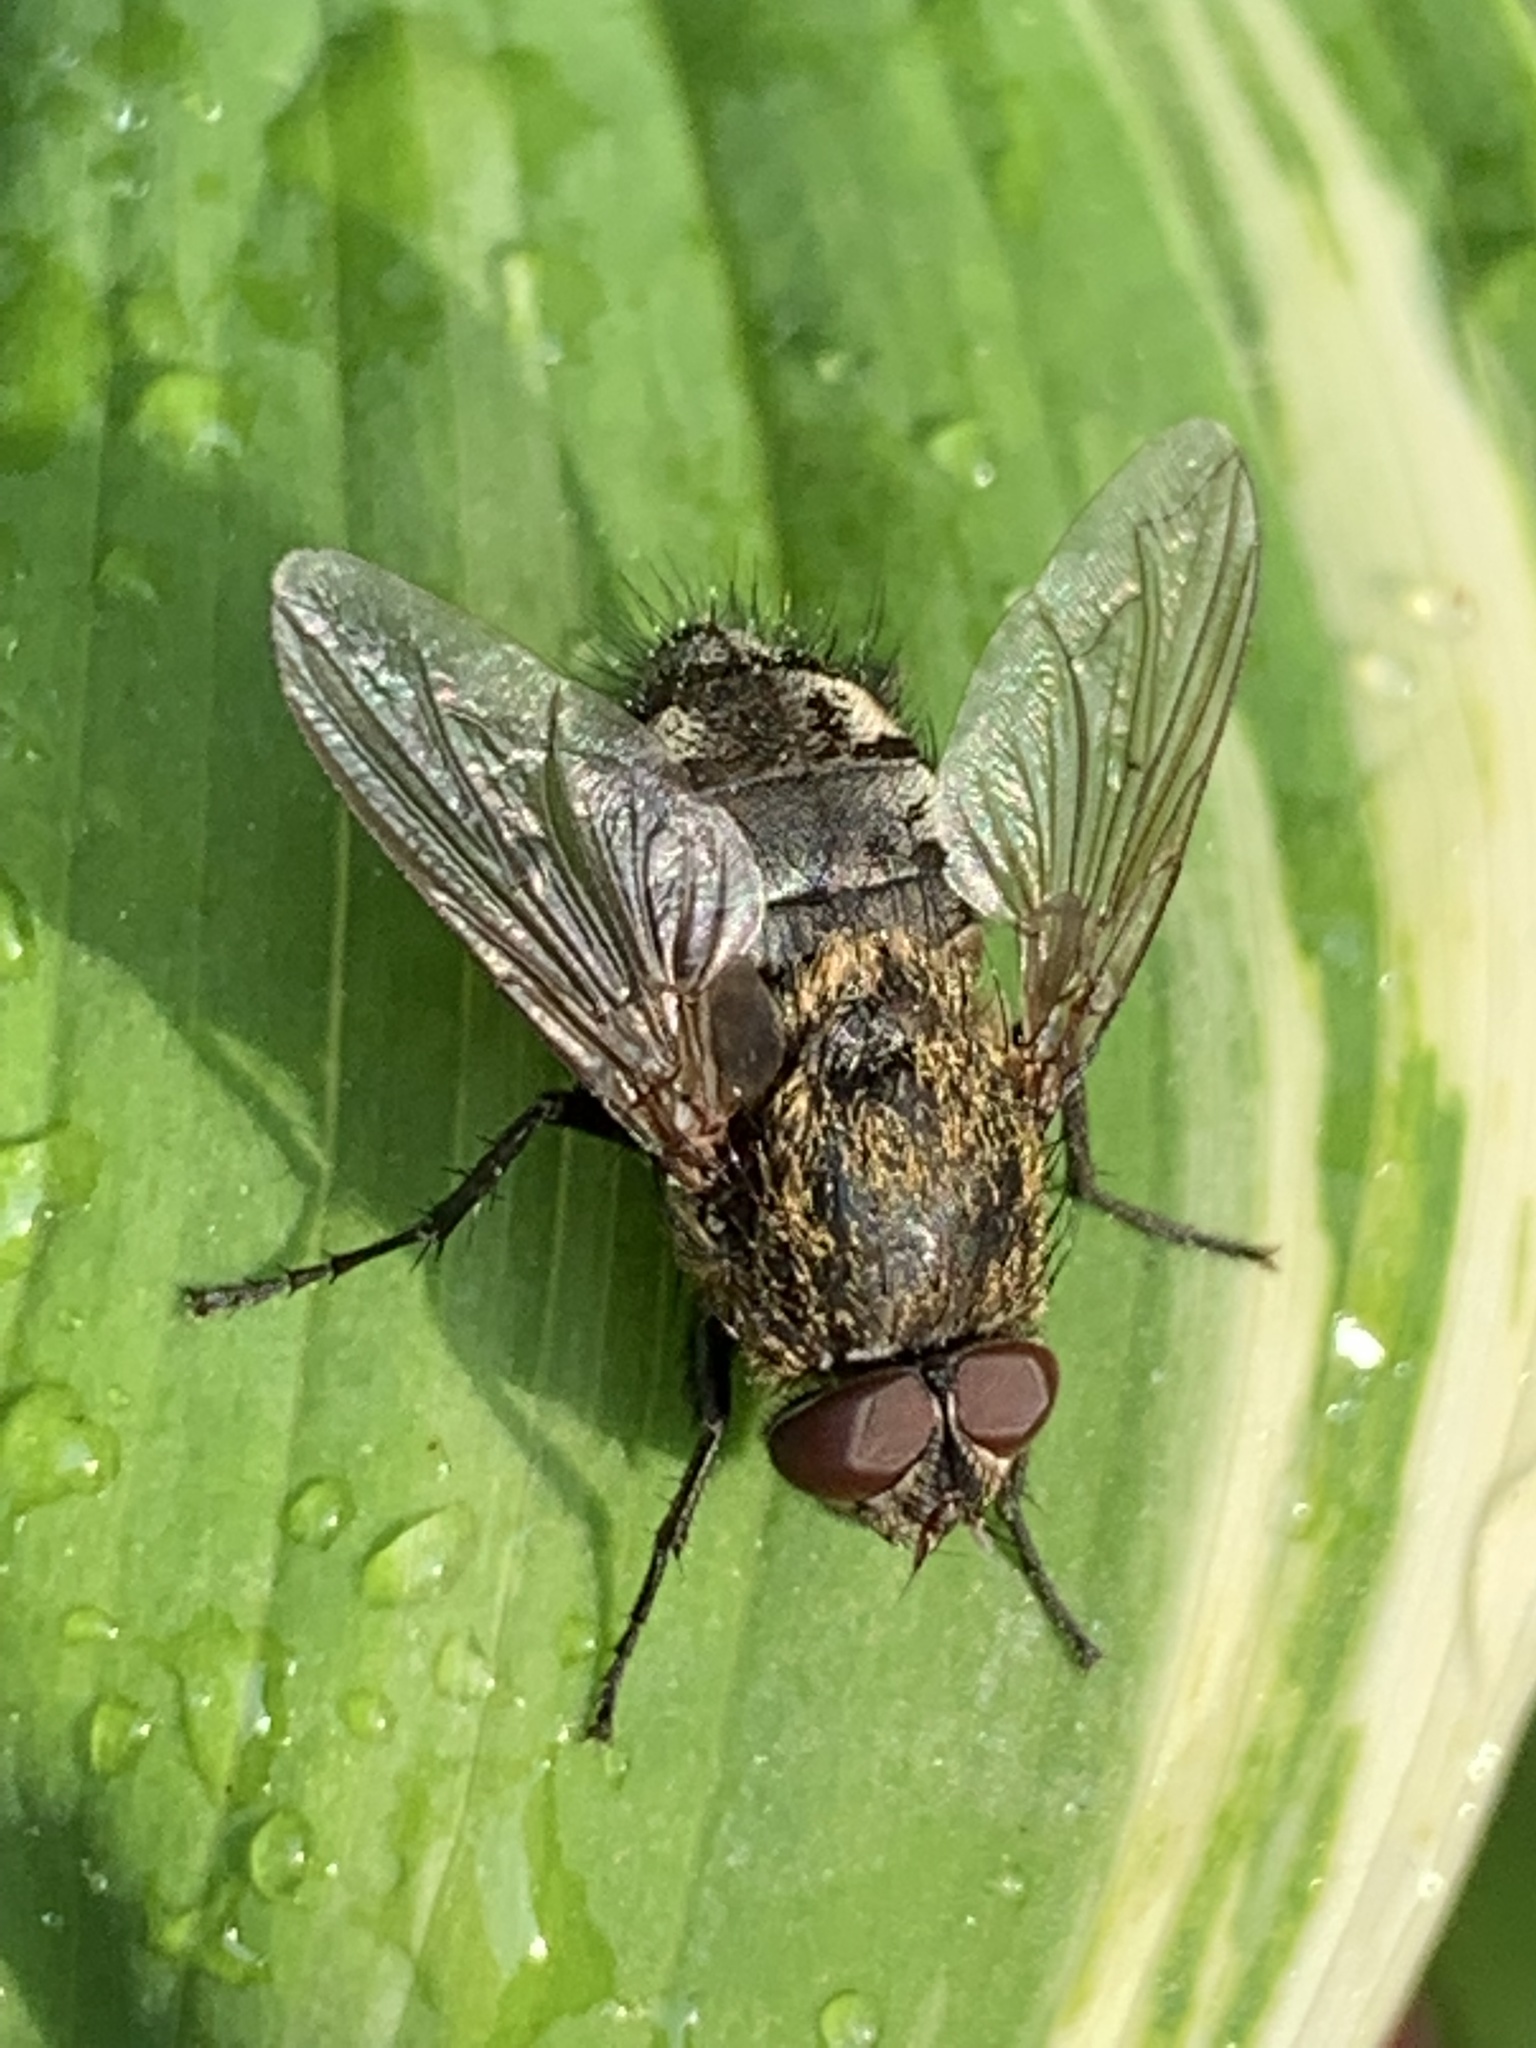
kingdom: Animalia
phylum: Arthropoda
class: Insecta
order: Diptera
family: Polleniidae
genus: Pollenia
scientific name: Pollenia
